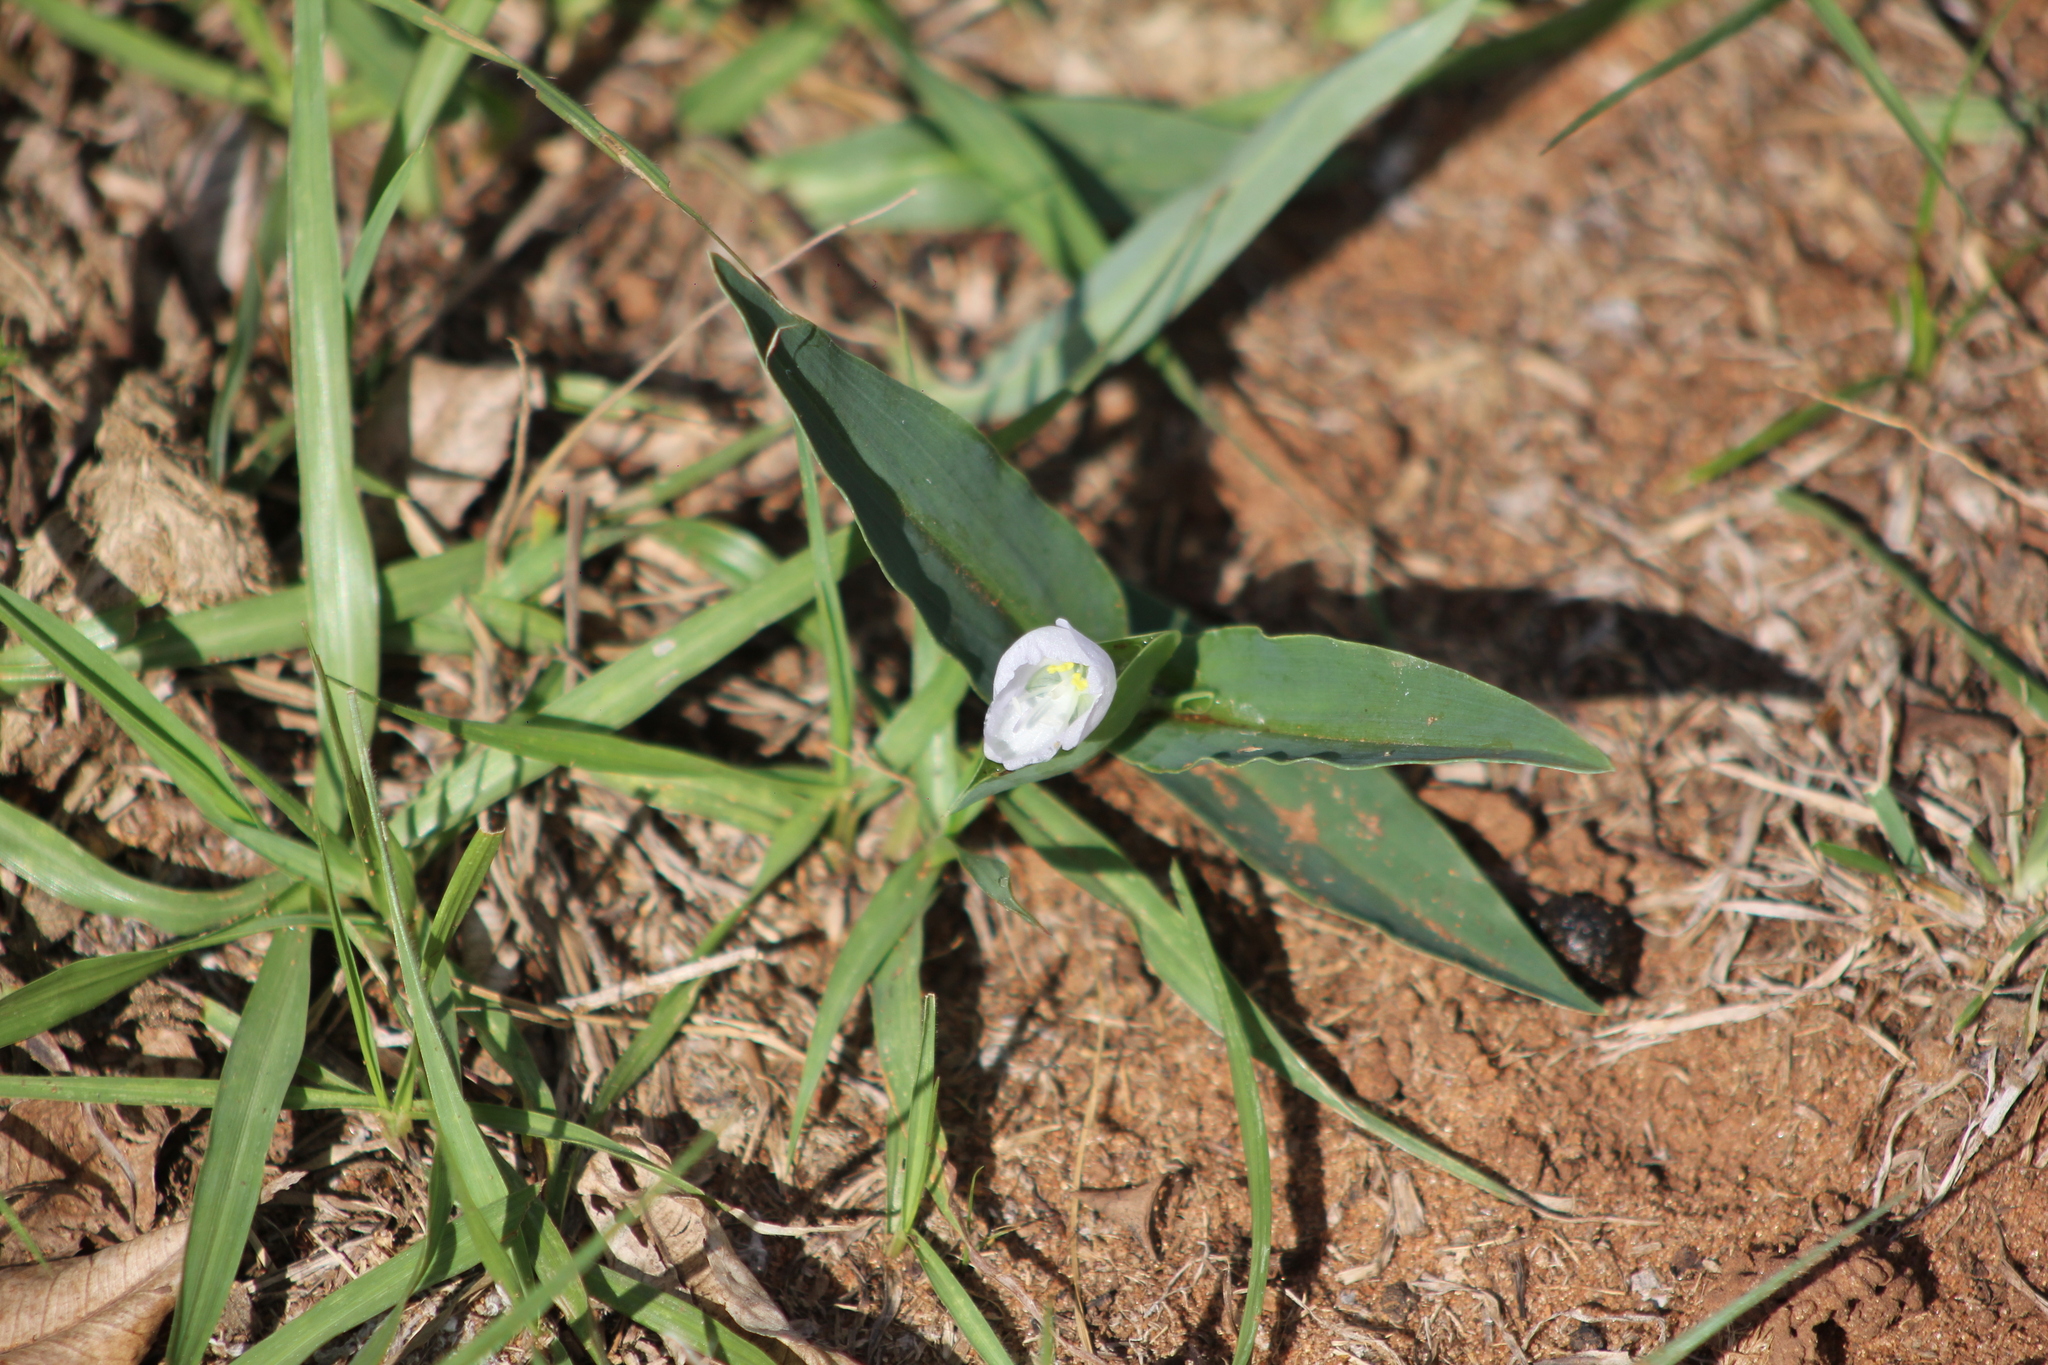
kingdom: Plantae
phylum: Tracheophyta
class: Liliopsida
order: Commelinales
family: Commelinaceae
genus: Commelina
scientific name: Commelina platyphylla
